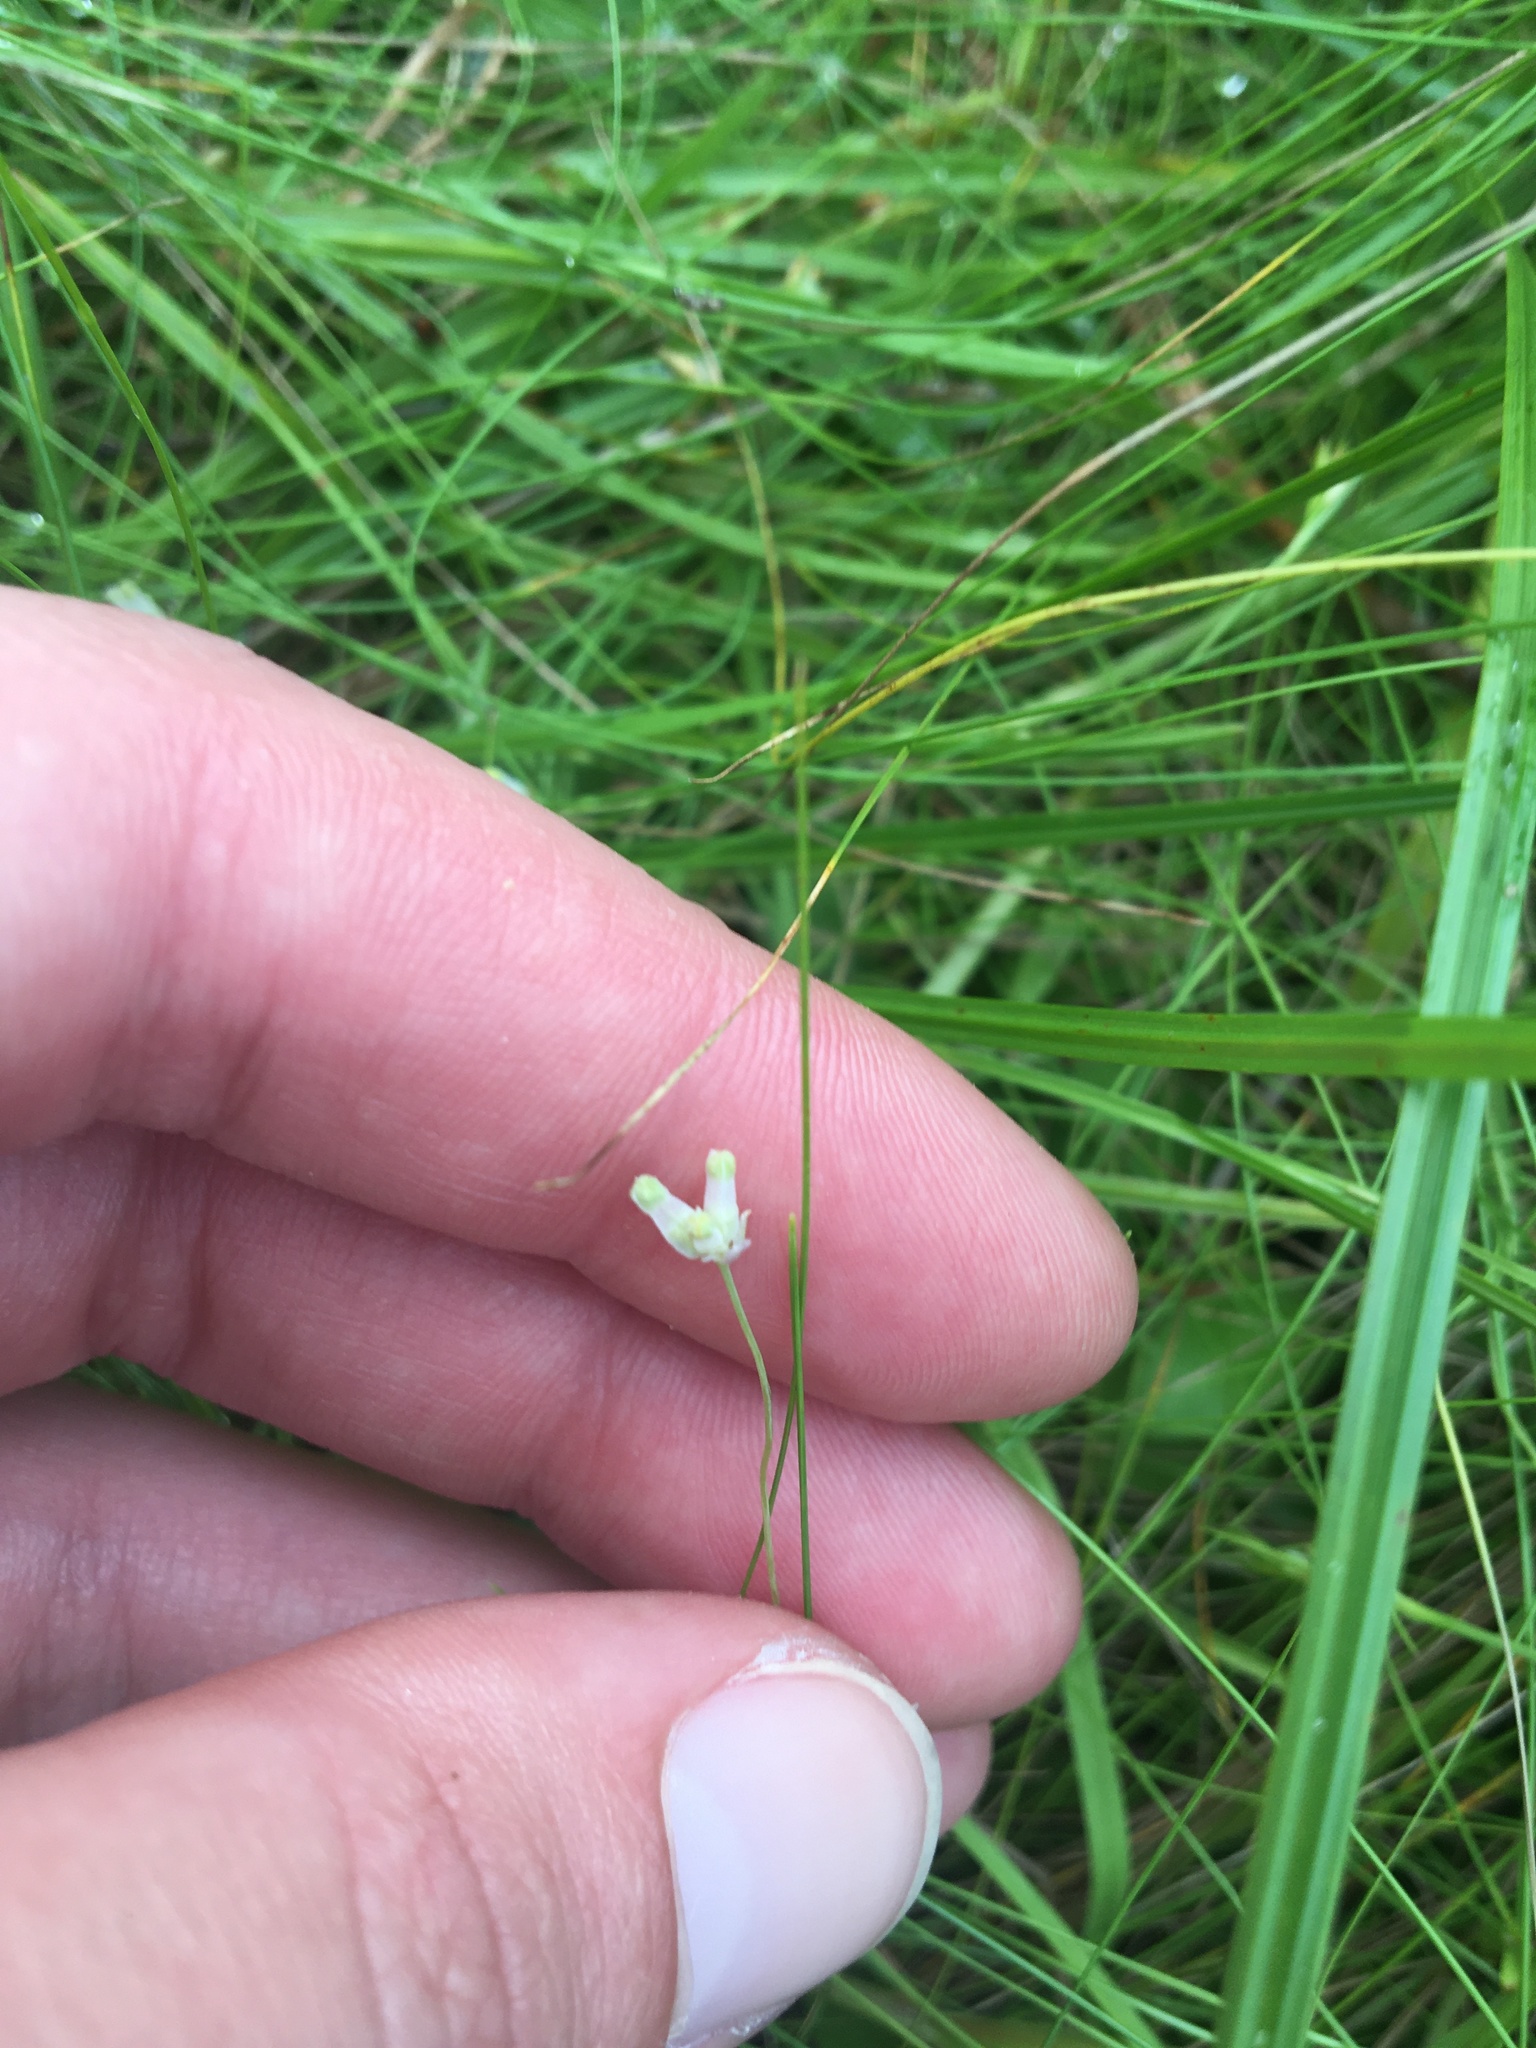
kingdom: Plantae
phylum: Tracheophyta
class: Liliopsida
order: Dioscoreales
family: Burmanniaceae
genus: Burmannia
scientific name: Burmannia capitata
